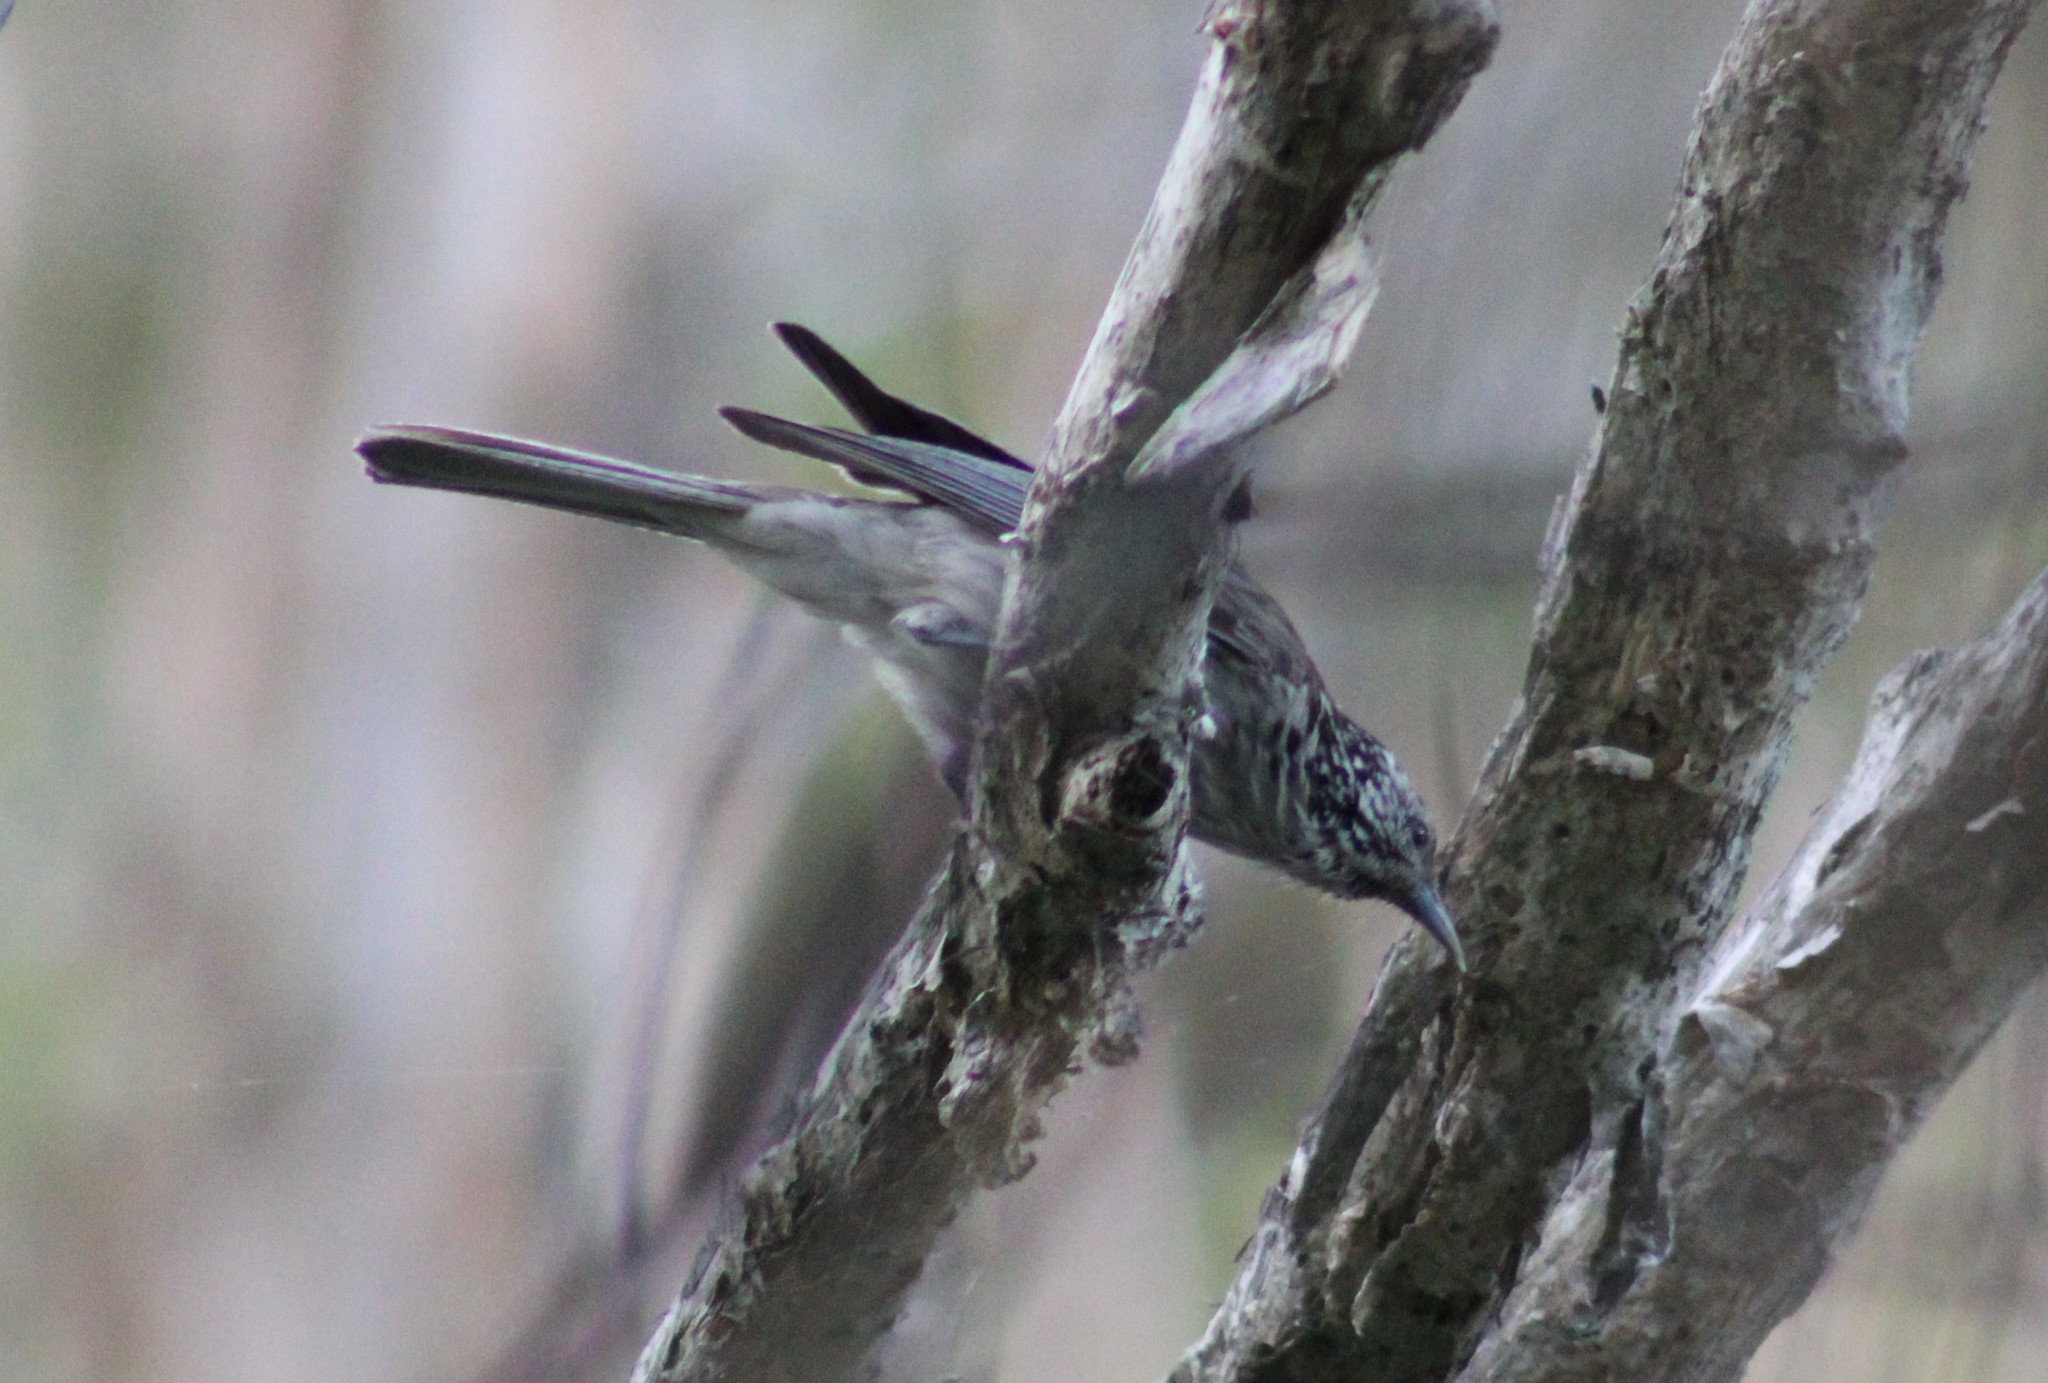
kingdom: Animalia
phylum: Chordata
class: Aves
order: Passeriformes
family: Meliphagidae
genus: Plectorhyncha
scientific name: Plectorhyncha lanceolata
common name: Striped honeyeater
